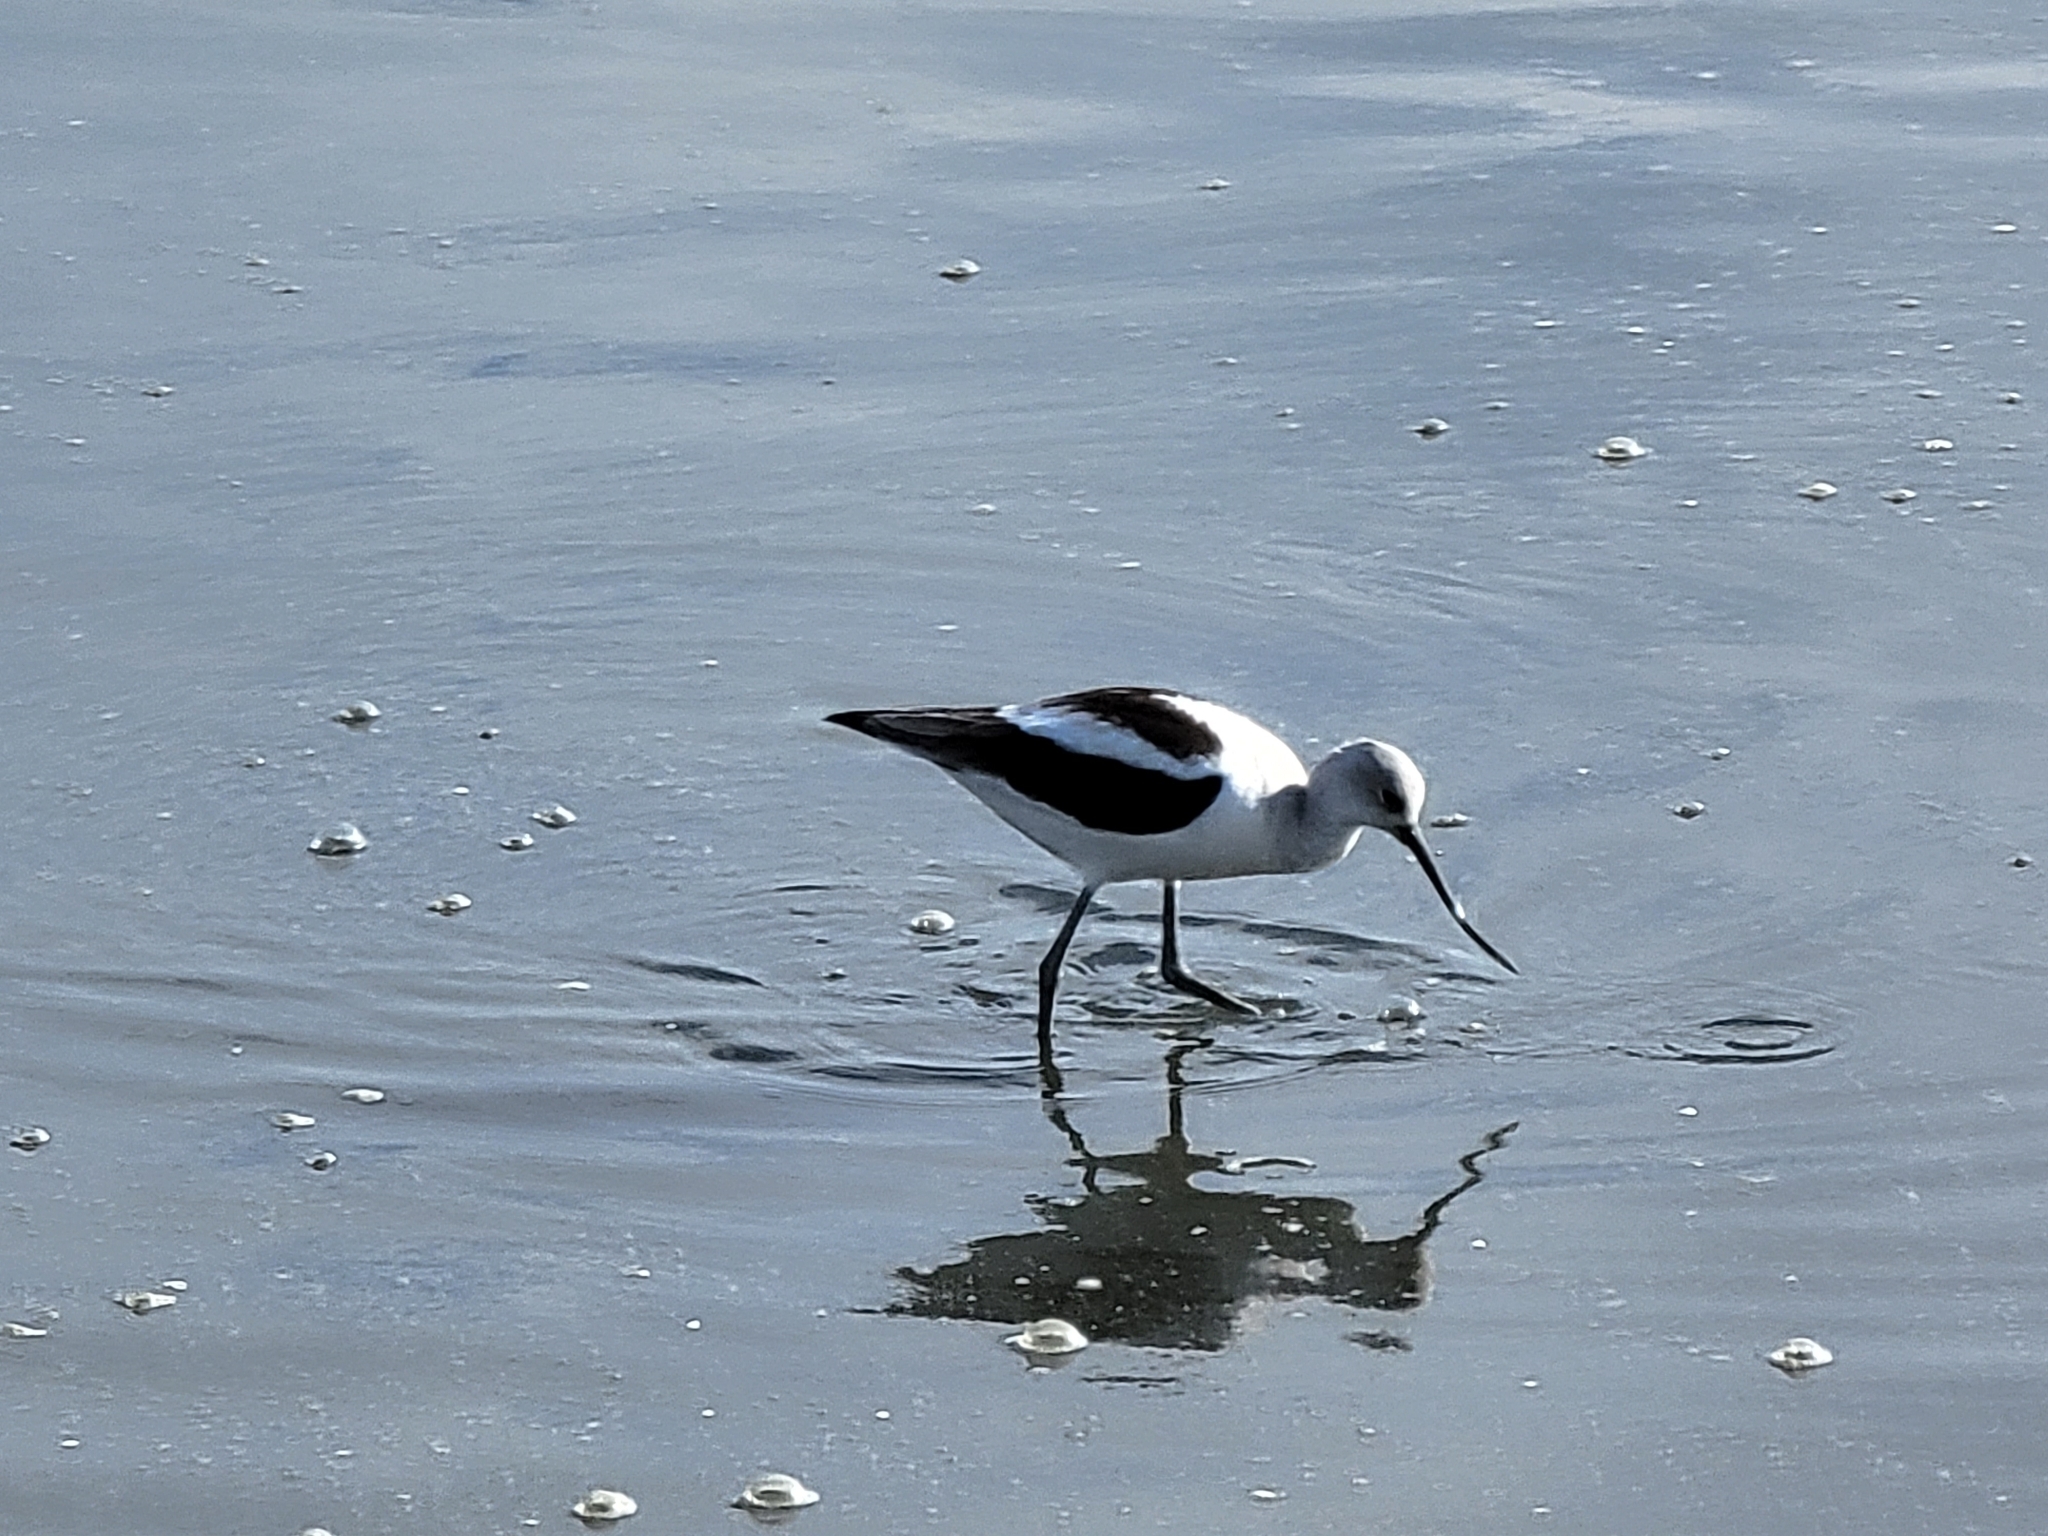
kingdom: Animalia
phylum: Chordata
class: Aves
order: Charadriiformes
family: Recurvirostridae
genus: Recurvirostra
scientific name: Recurvirostra americana
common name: American avocet
